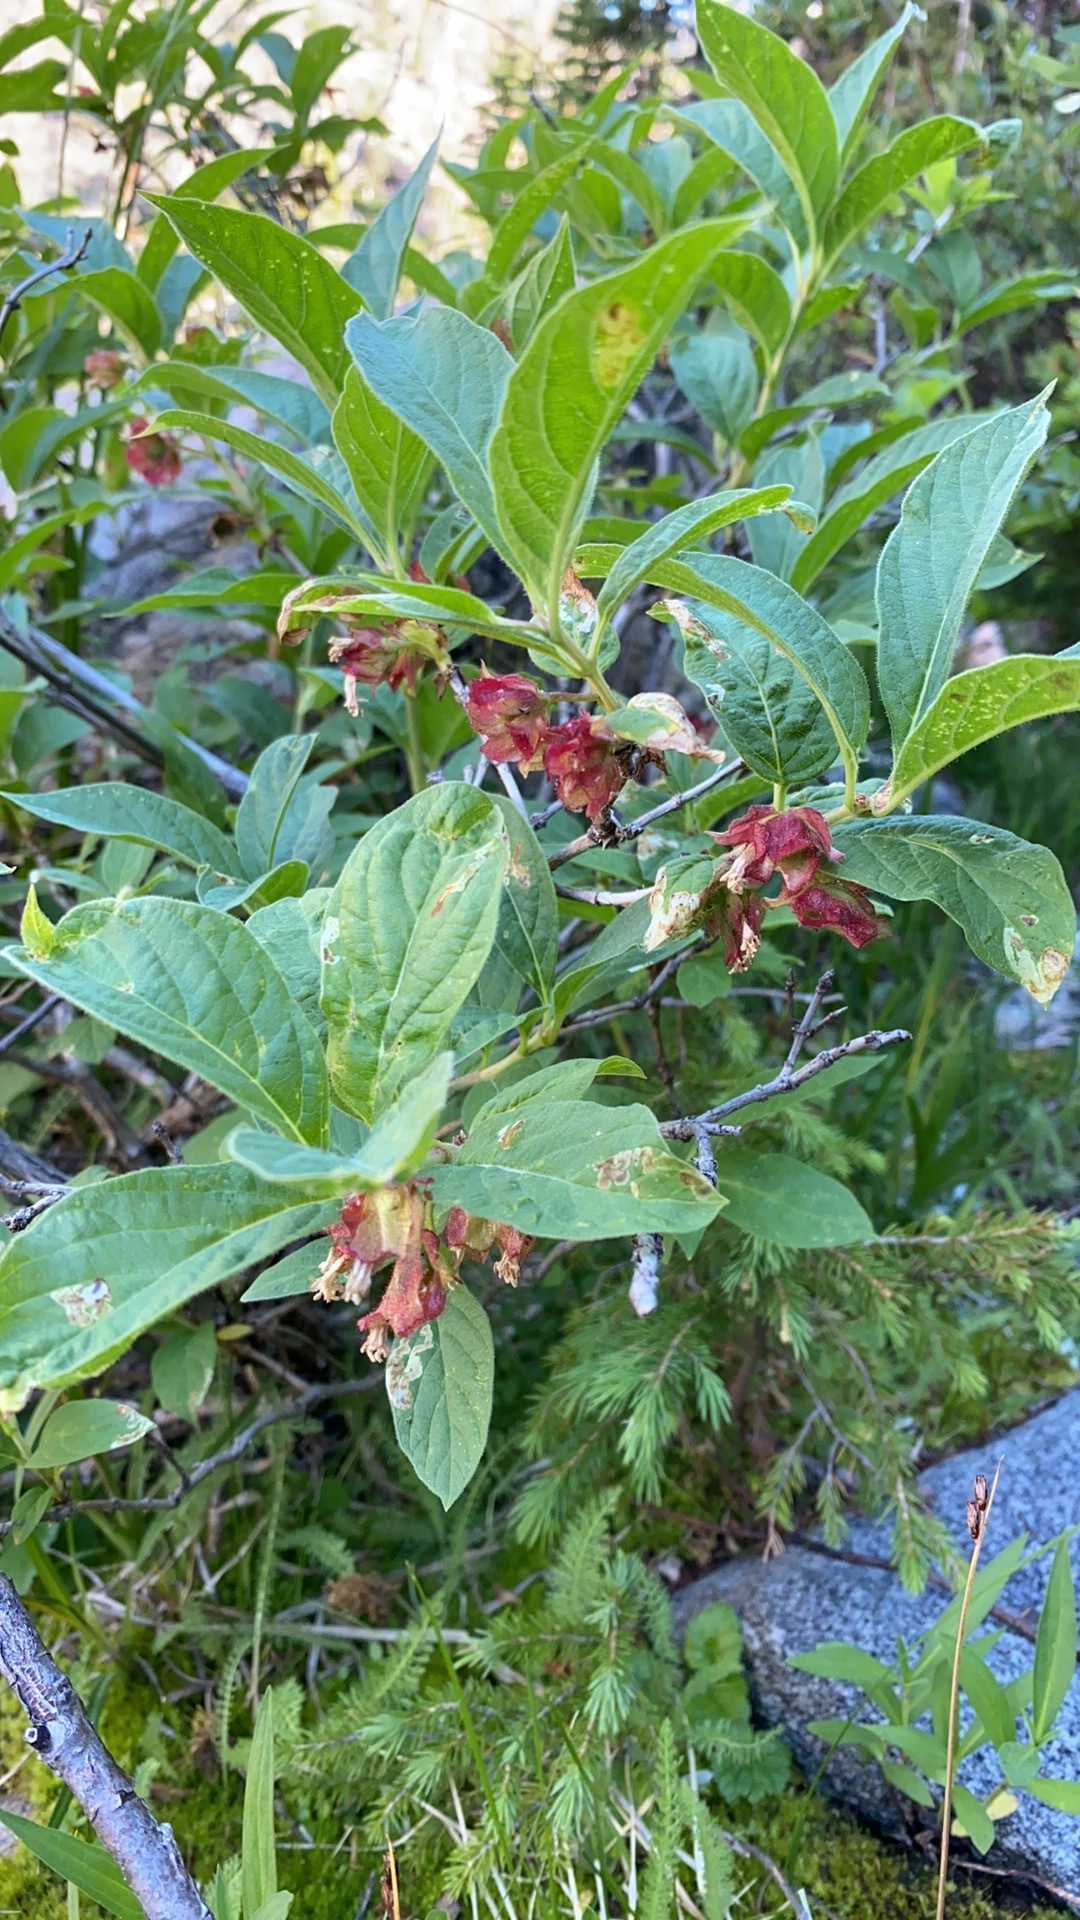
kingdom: Plantae
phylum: Tracheophyta
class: Magnoliopsida
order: Dipsacales
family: Caprifoliaceae
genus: Lonicera
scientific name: Lonicera involucrata
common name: Californian honeysuckle
